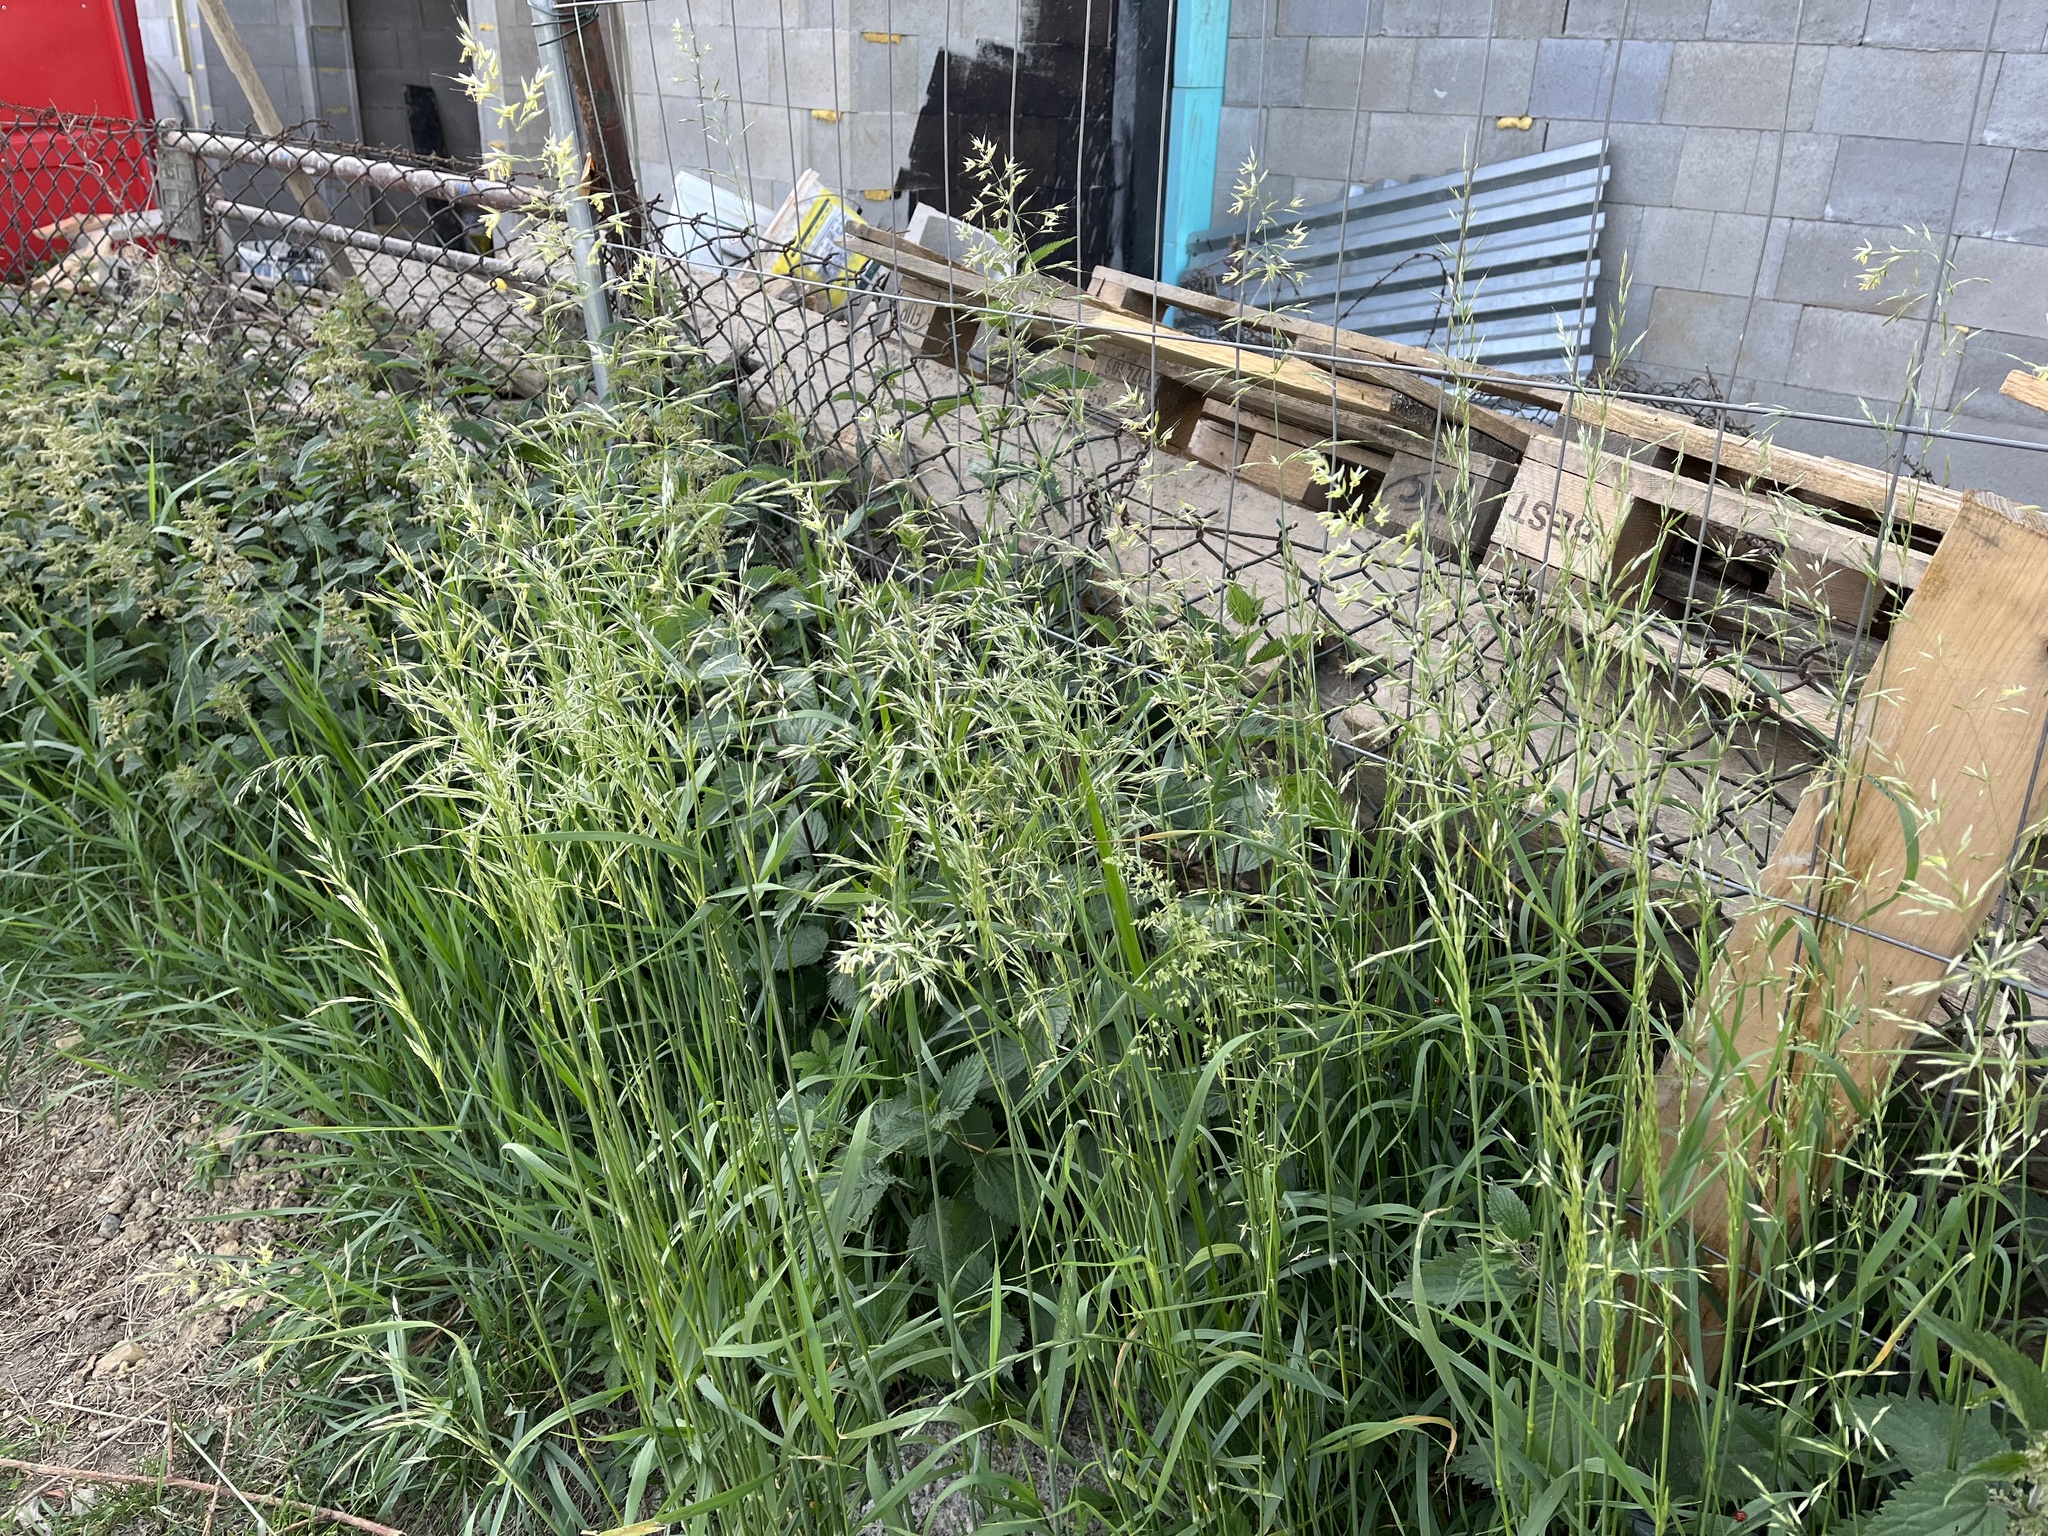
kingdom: Plantae
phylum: Tracheophyta
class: Liliopsida
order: Poales
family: Poaceae
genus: Arrhenatherum
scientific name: Arrhenatherum elatius
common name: Tall oatgrass
